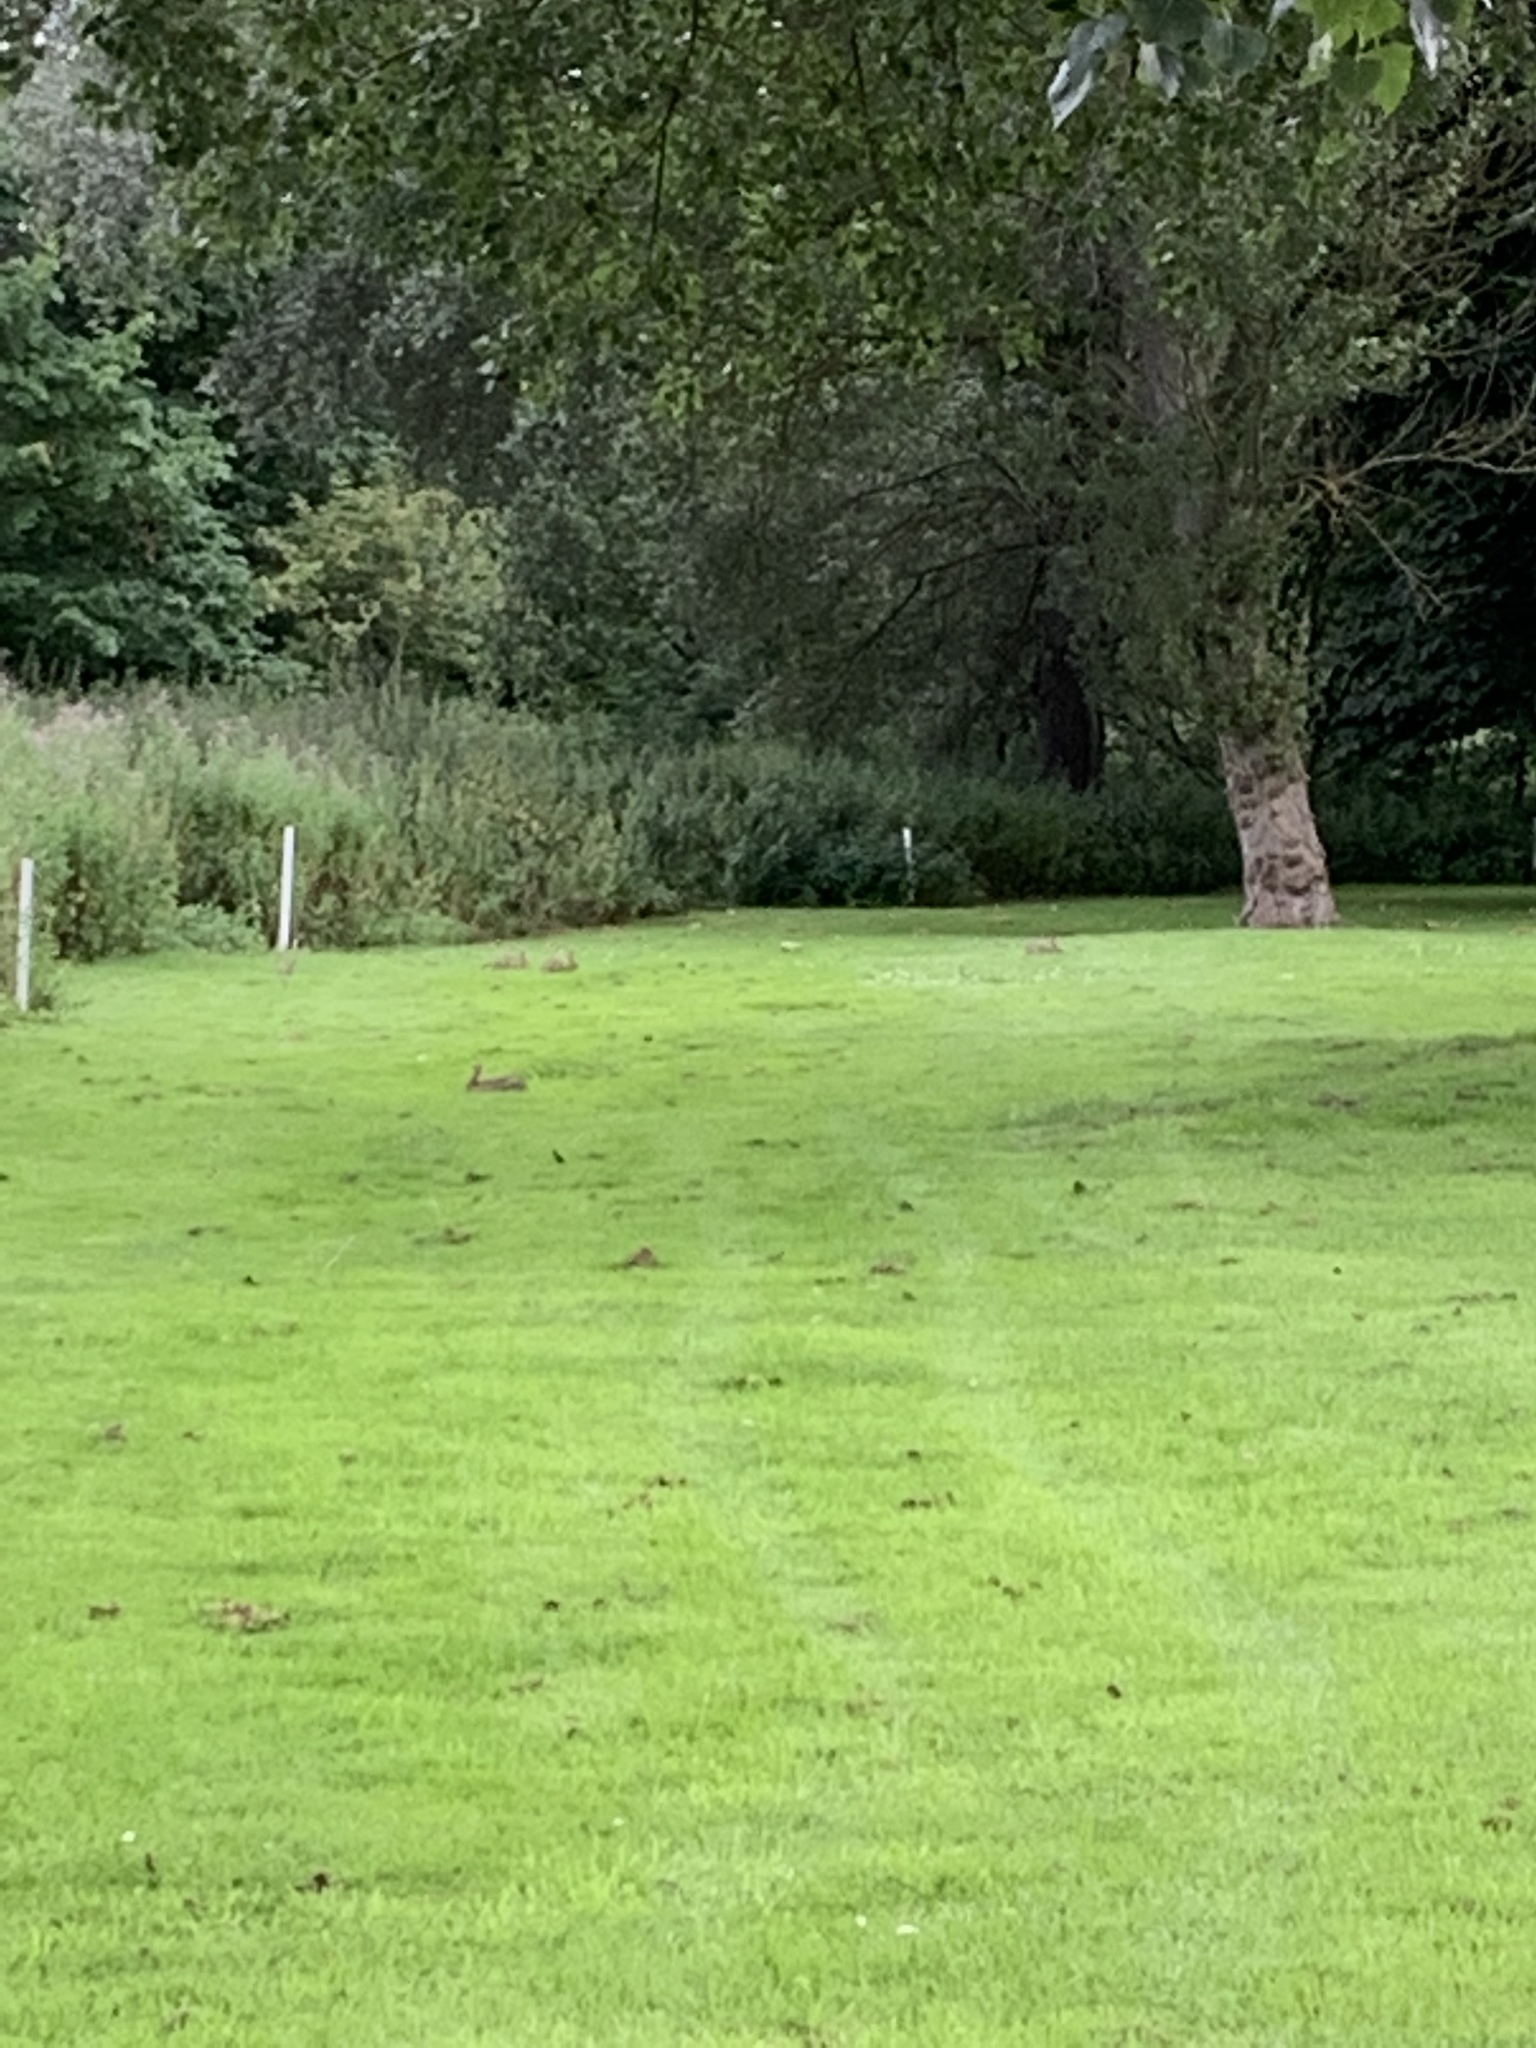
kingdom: Animalia
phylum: Chordata
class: Mammalia
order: Lagomorpha
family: Leporidae
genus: Oryctolagus
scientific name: Oryctolagus cuniculus
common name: European rabbit
